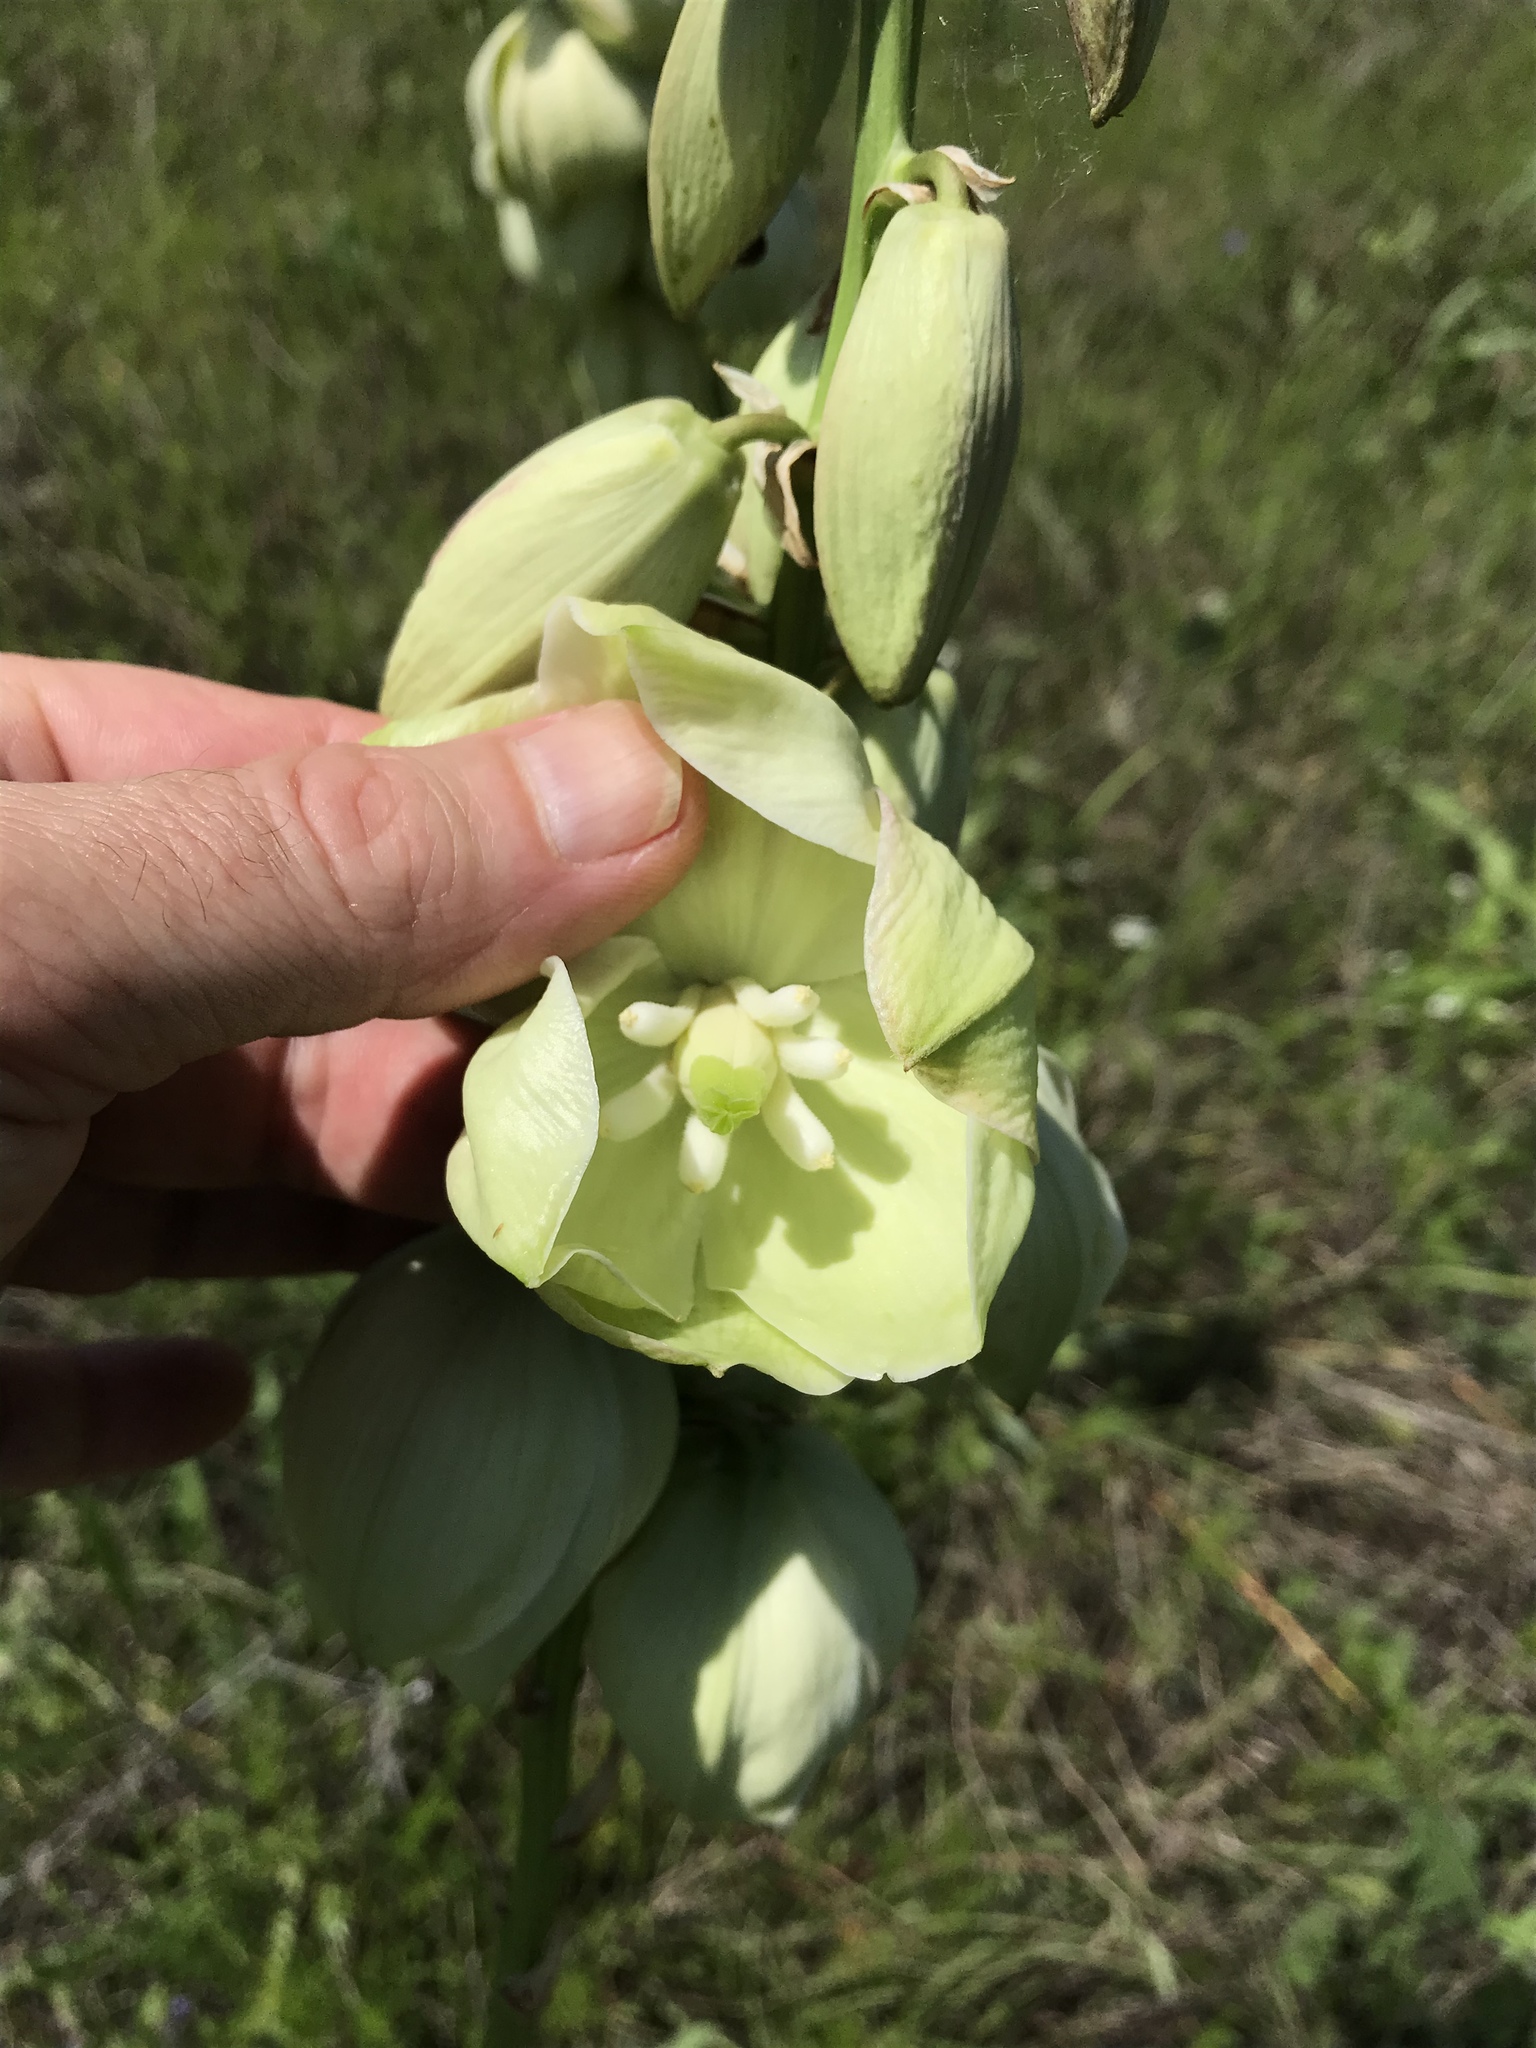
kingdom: Plantae
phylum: Tracheophyta
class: Liliopsida
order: Asparagales
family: Asparagaceae
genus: Yucca
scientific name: Yucca arkansana
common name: Arkansas yucca
